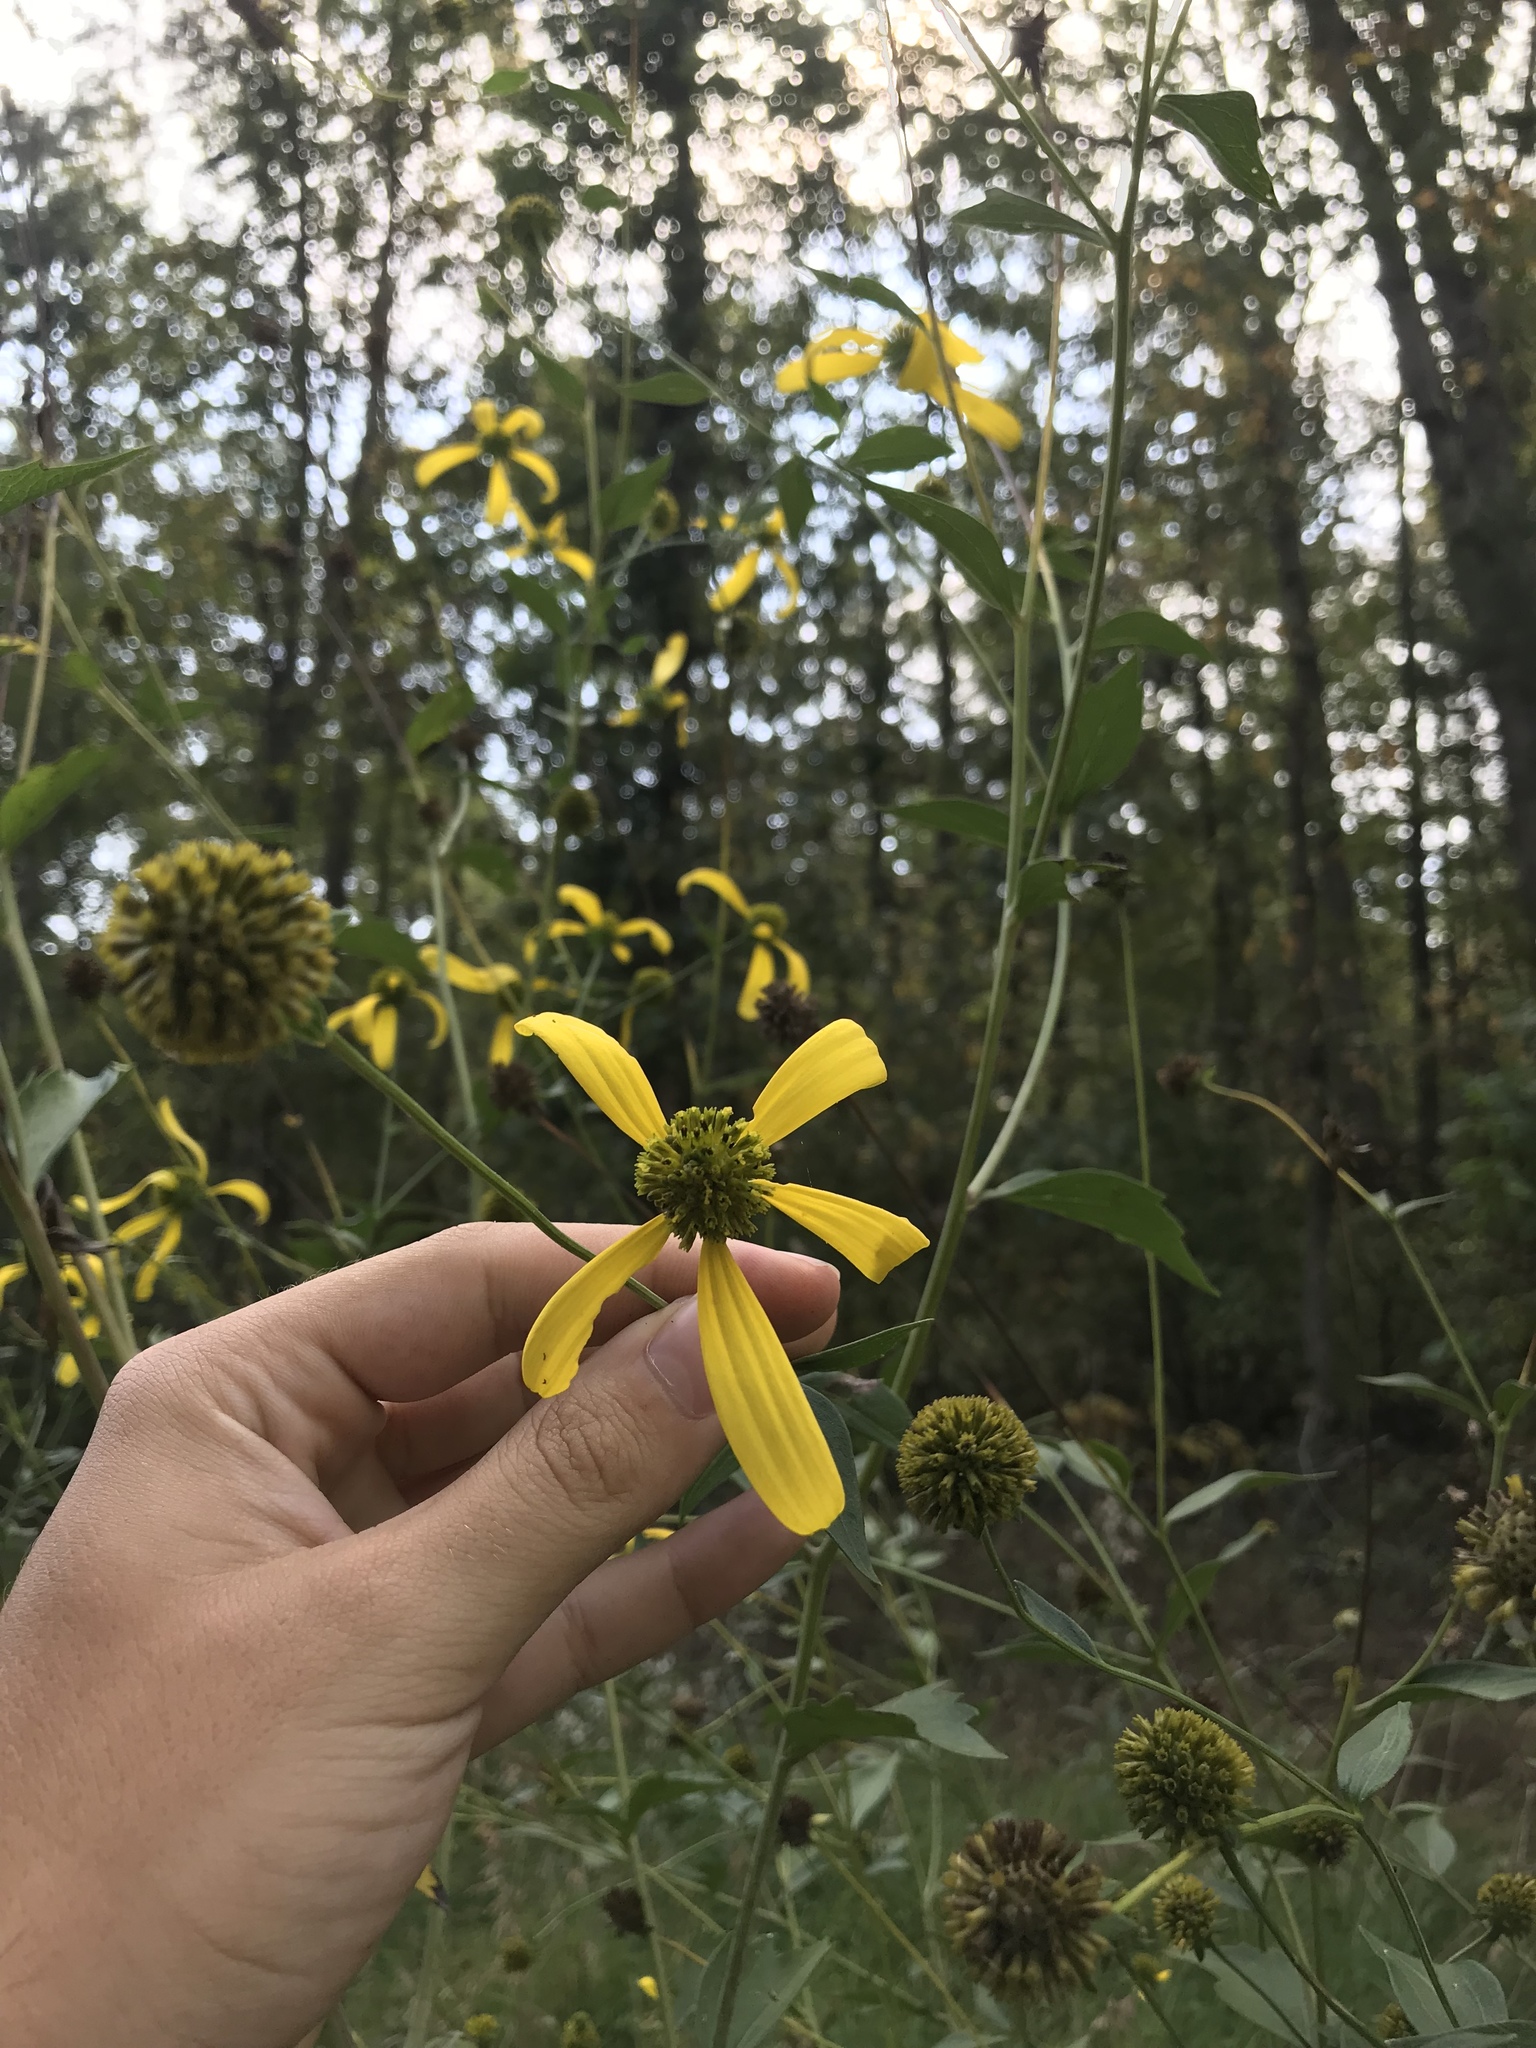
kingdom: Plantae
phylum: Tracheophyta
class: Magnoliopsida
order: Asterales
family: Asteraceae
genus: Rudbeckia
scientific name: Rudbeckia laciniata
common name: Coneflower
